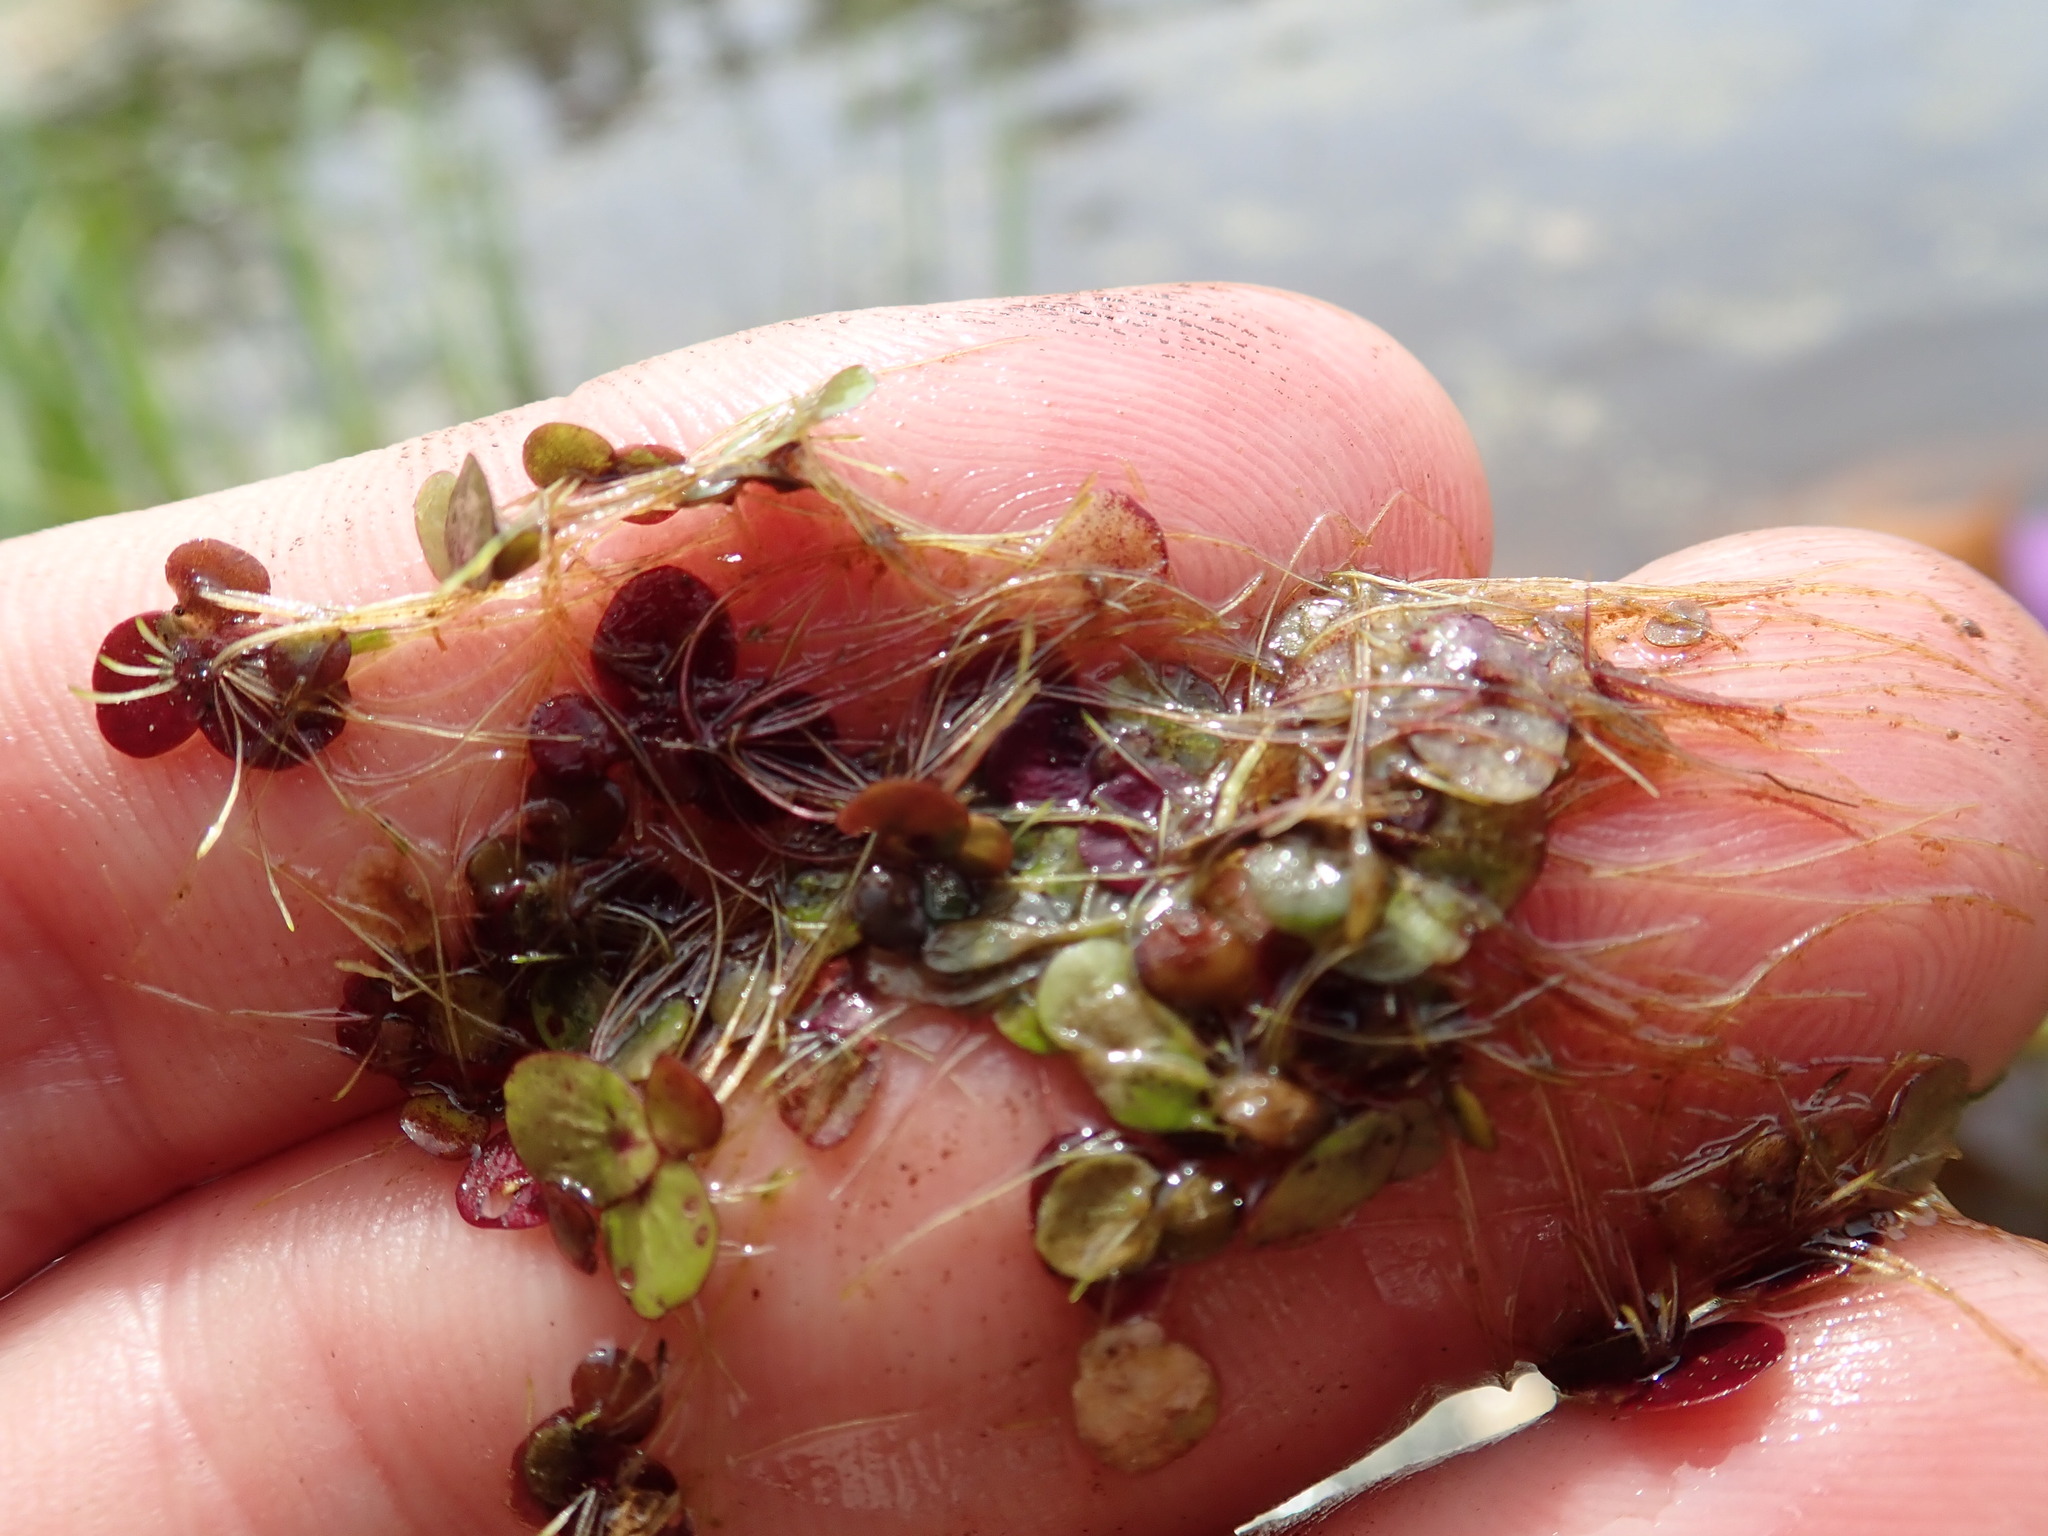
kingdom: Plantae
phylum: Tracheophyta
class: Liliopsida
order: Alismatales
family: Araceae
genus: Spirodela
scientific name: Spirodela polyrhiza
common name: Great duckweed
